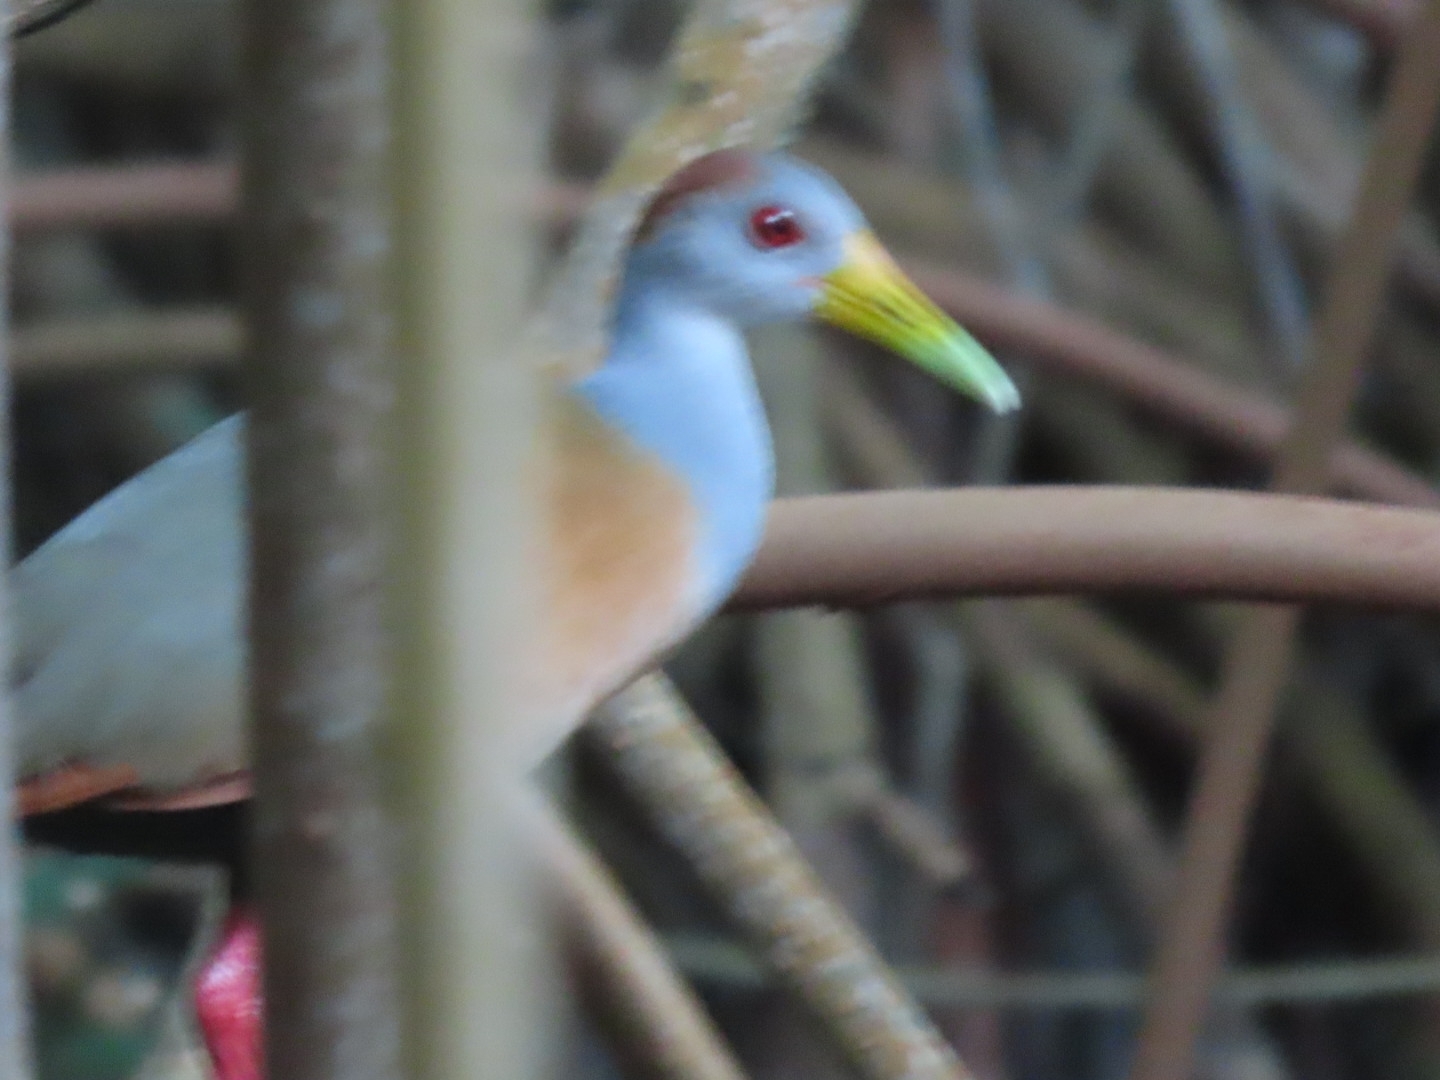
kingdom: Animalia
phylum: Chordata
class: Aves
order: Gruiformes
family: Rallidae
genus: Aramides
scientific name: Aramides albiventris
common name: Russet-naped wood-rail
